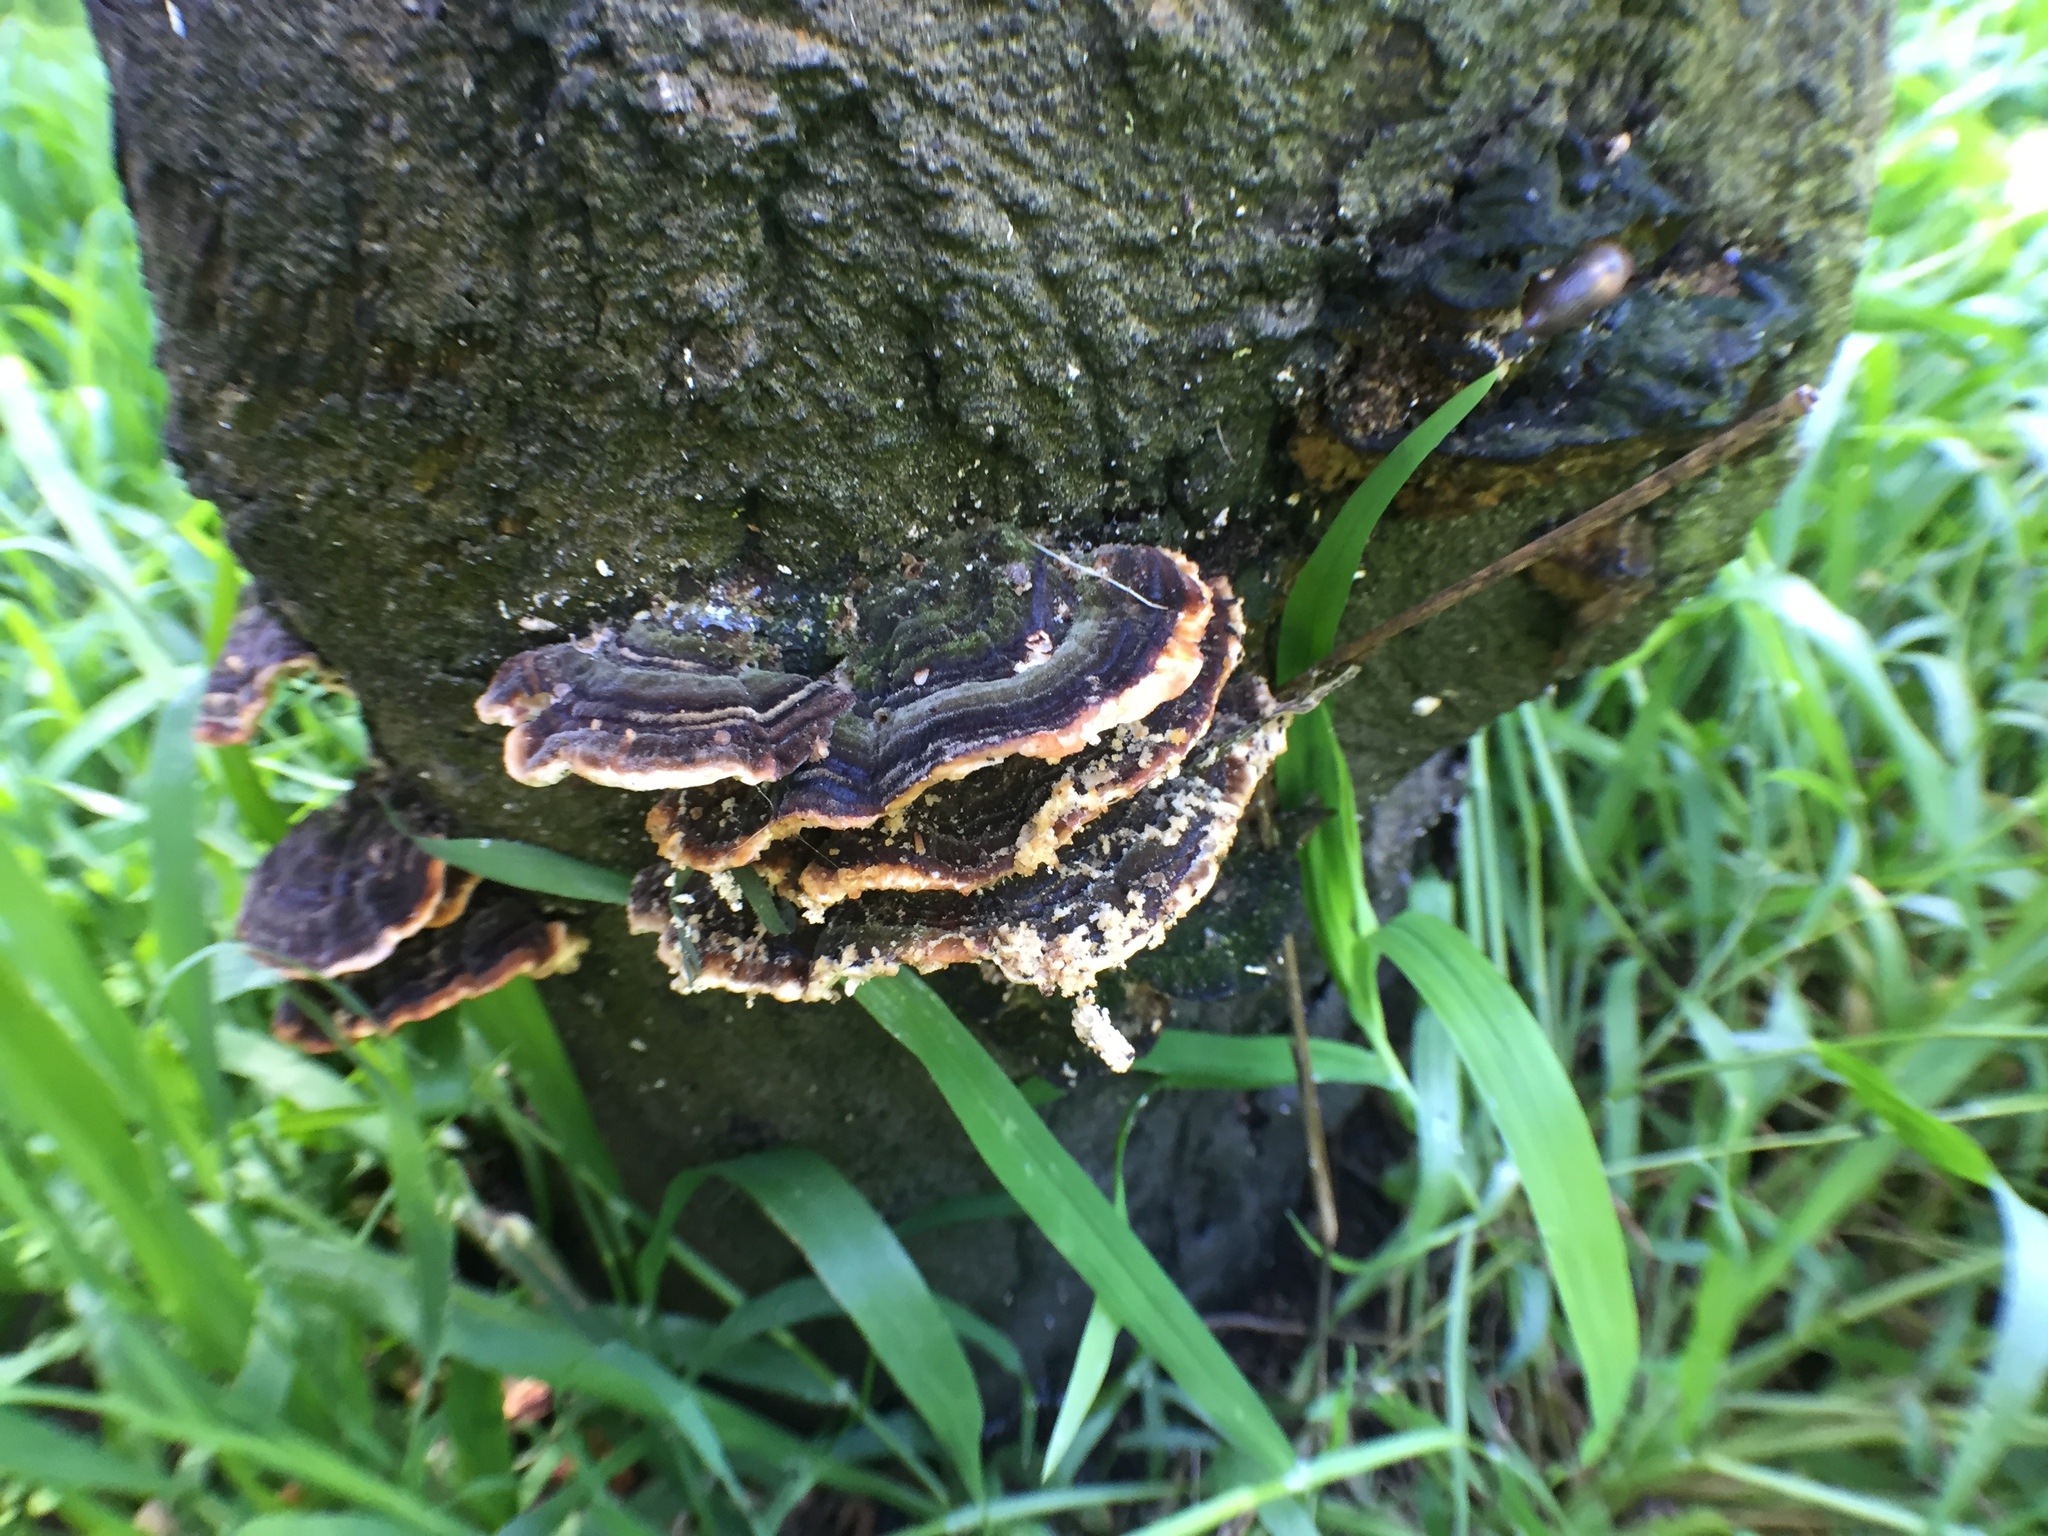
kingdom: Fungi
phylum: Basidiomycota
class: Agaricomycetes
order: Polyporales
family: Polyporaceae
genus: Trametes
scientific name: Trametes versicolor
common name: Turkeytail
